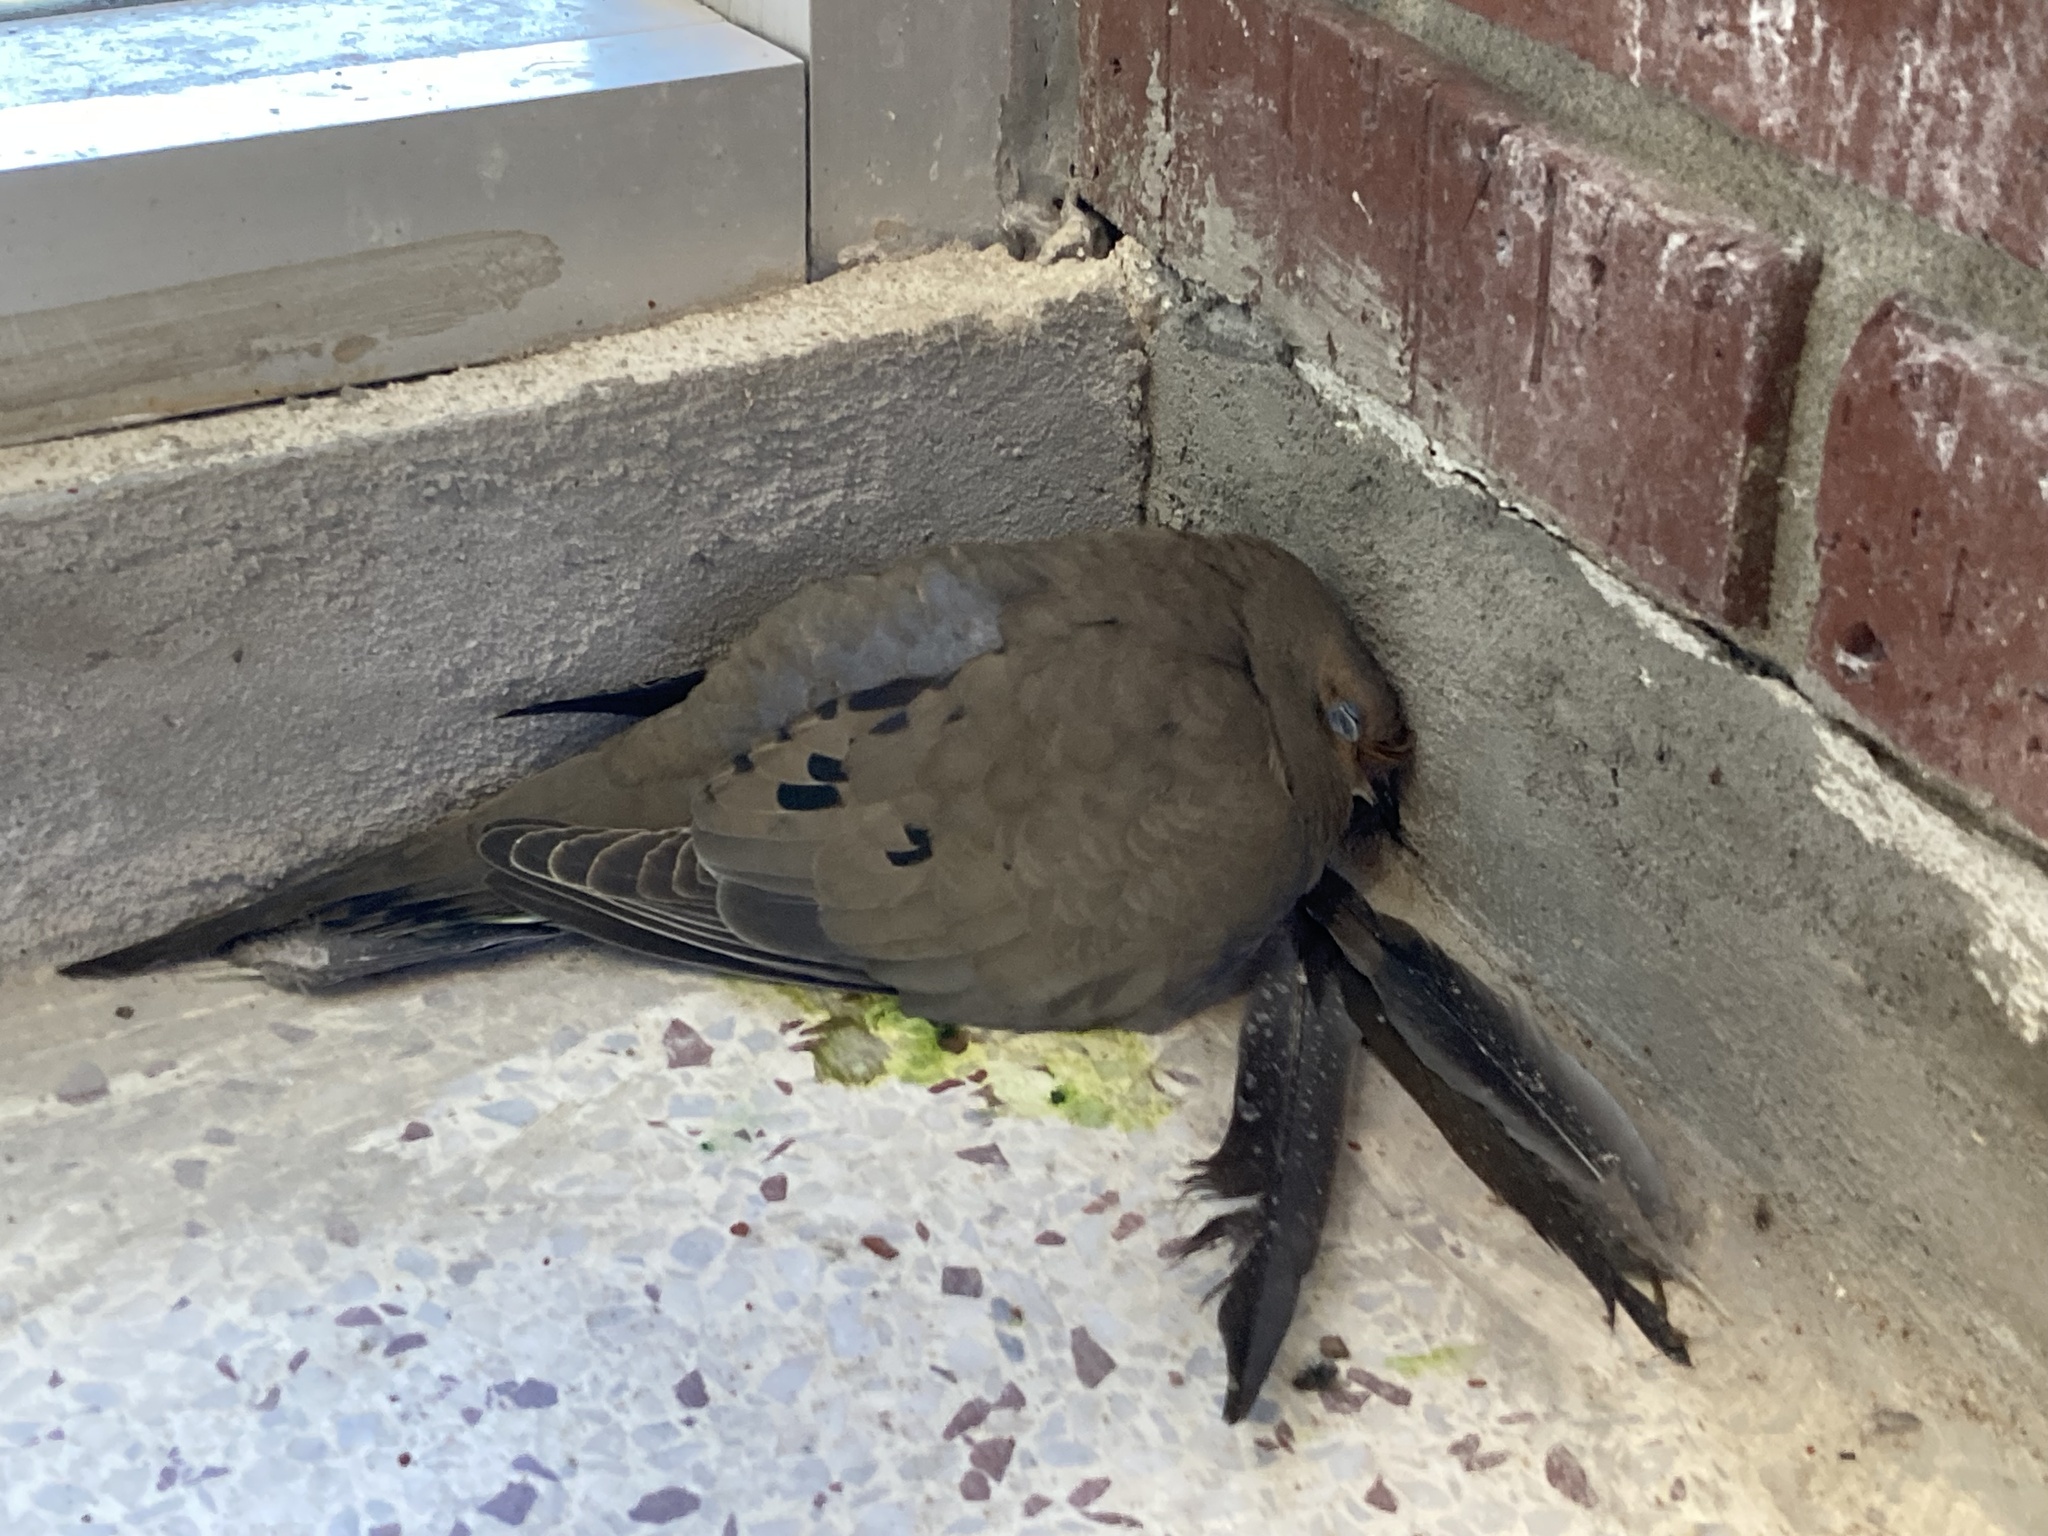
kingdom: Animalia
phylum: Chordata
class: Aves
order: Columbiformes
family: Columbidae
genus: Zenaida
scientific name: Zenaida macroura
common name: Mourning dove
